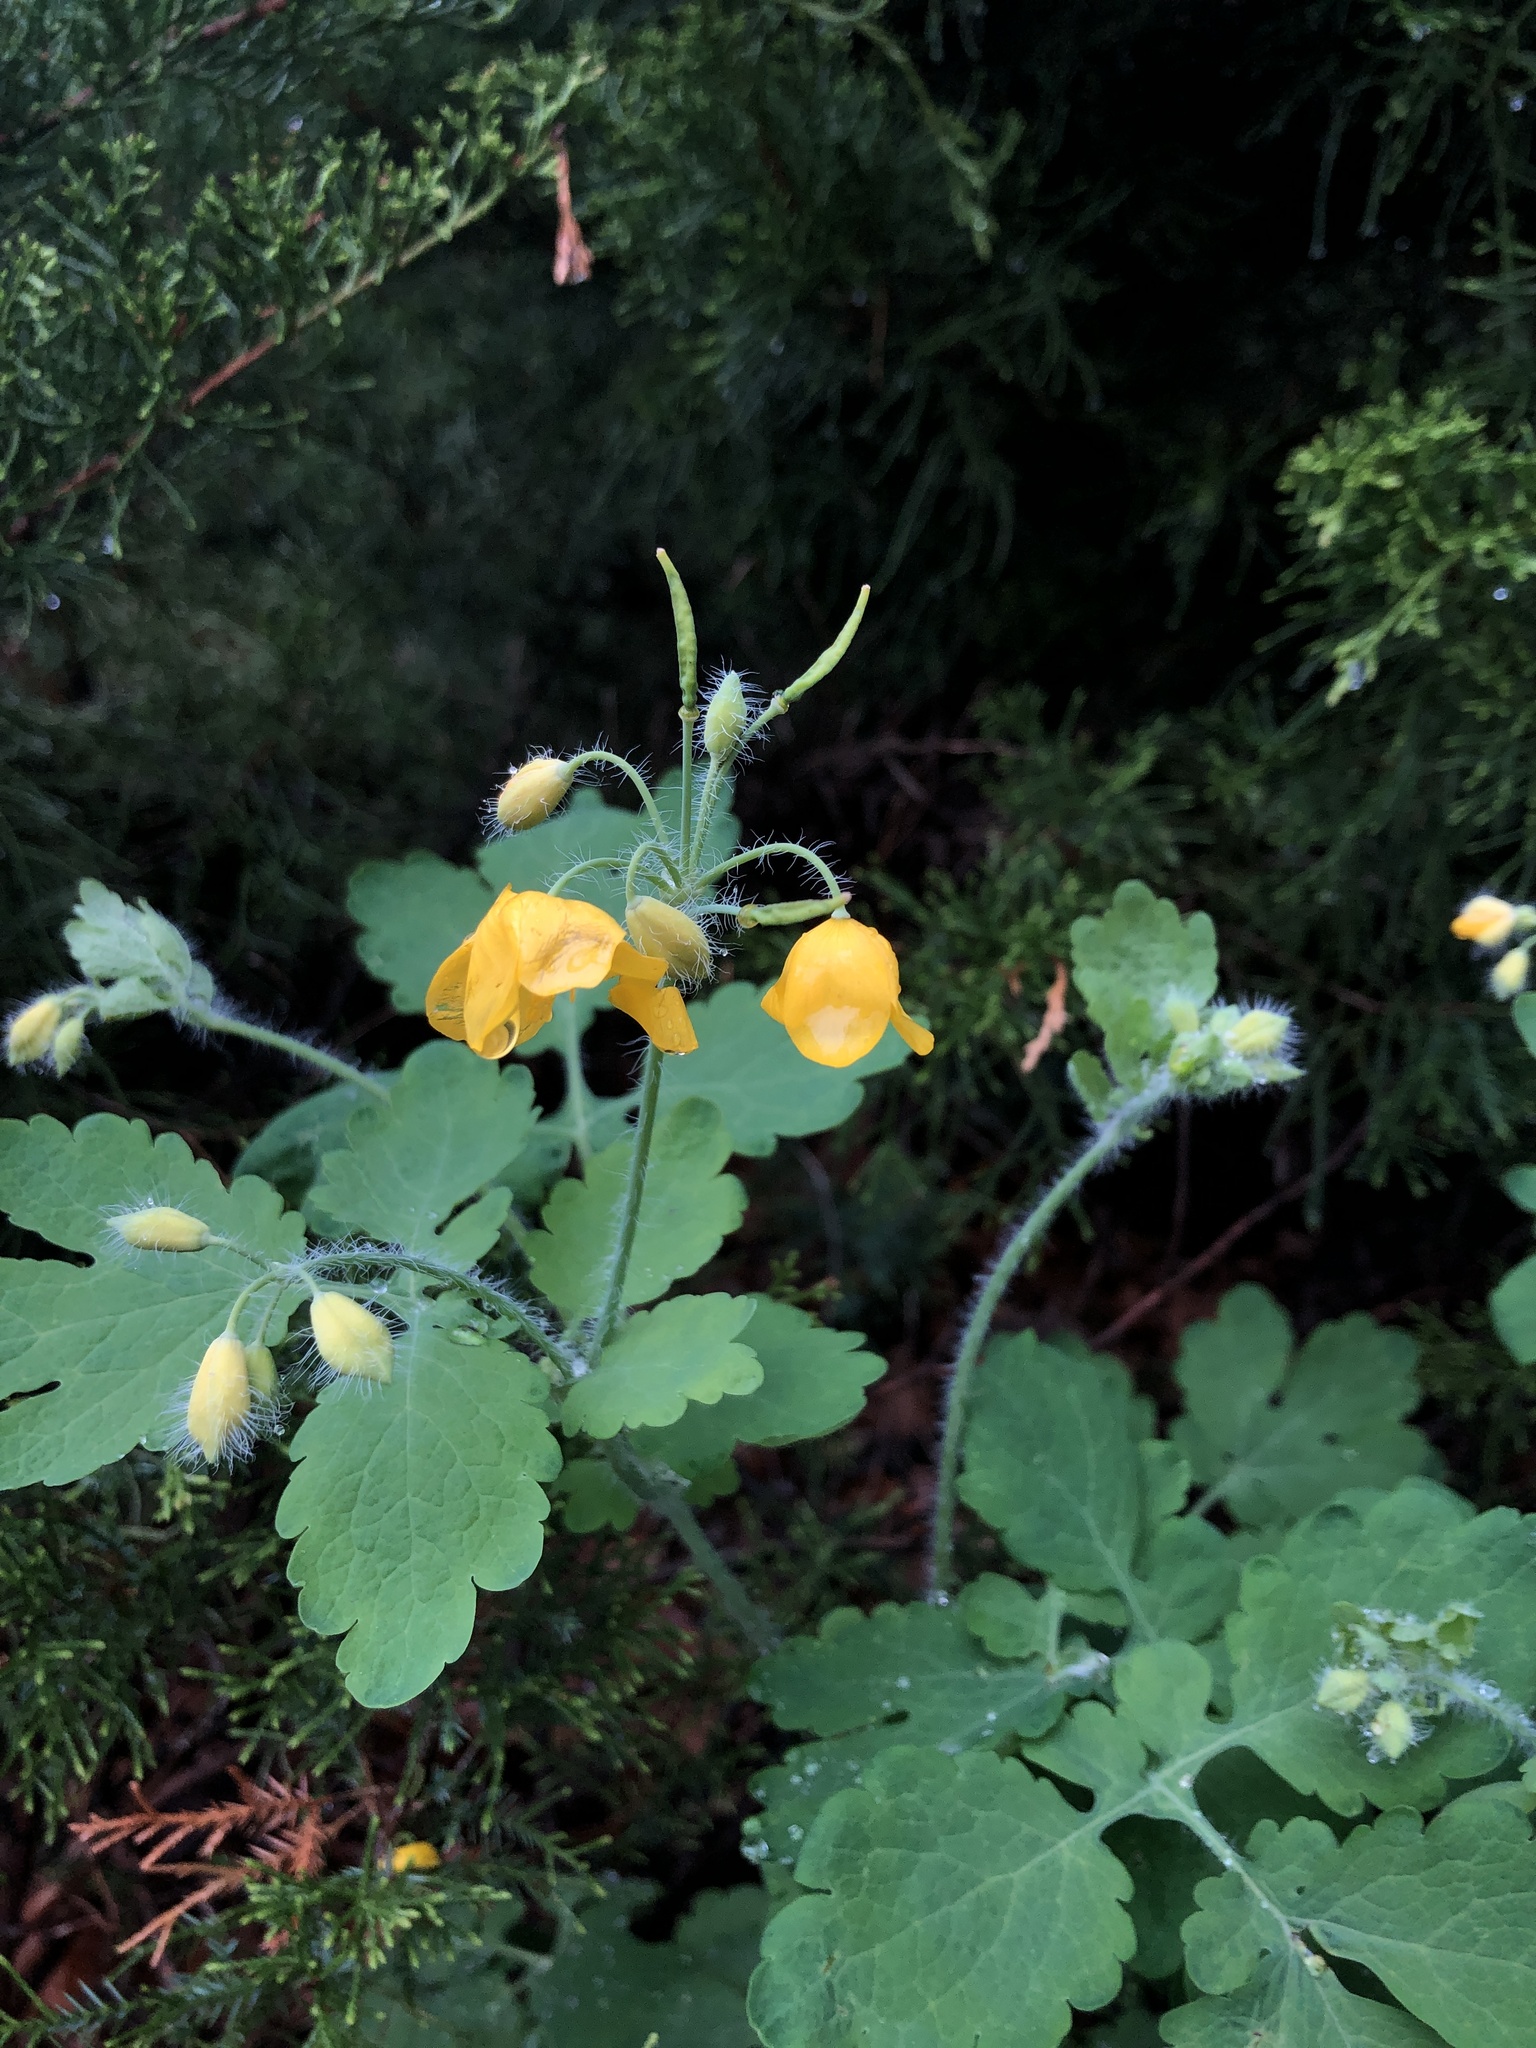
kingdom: Plantae
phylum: Tracheophyta
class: Magnoliopsida
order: Ranunculales
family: Papaveraceae
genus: Chelidonium
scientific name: Chelidonium majus
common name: Greater celandine
